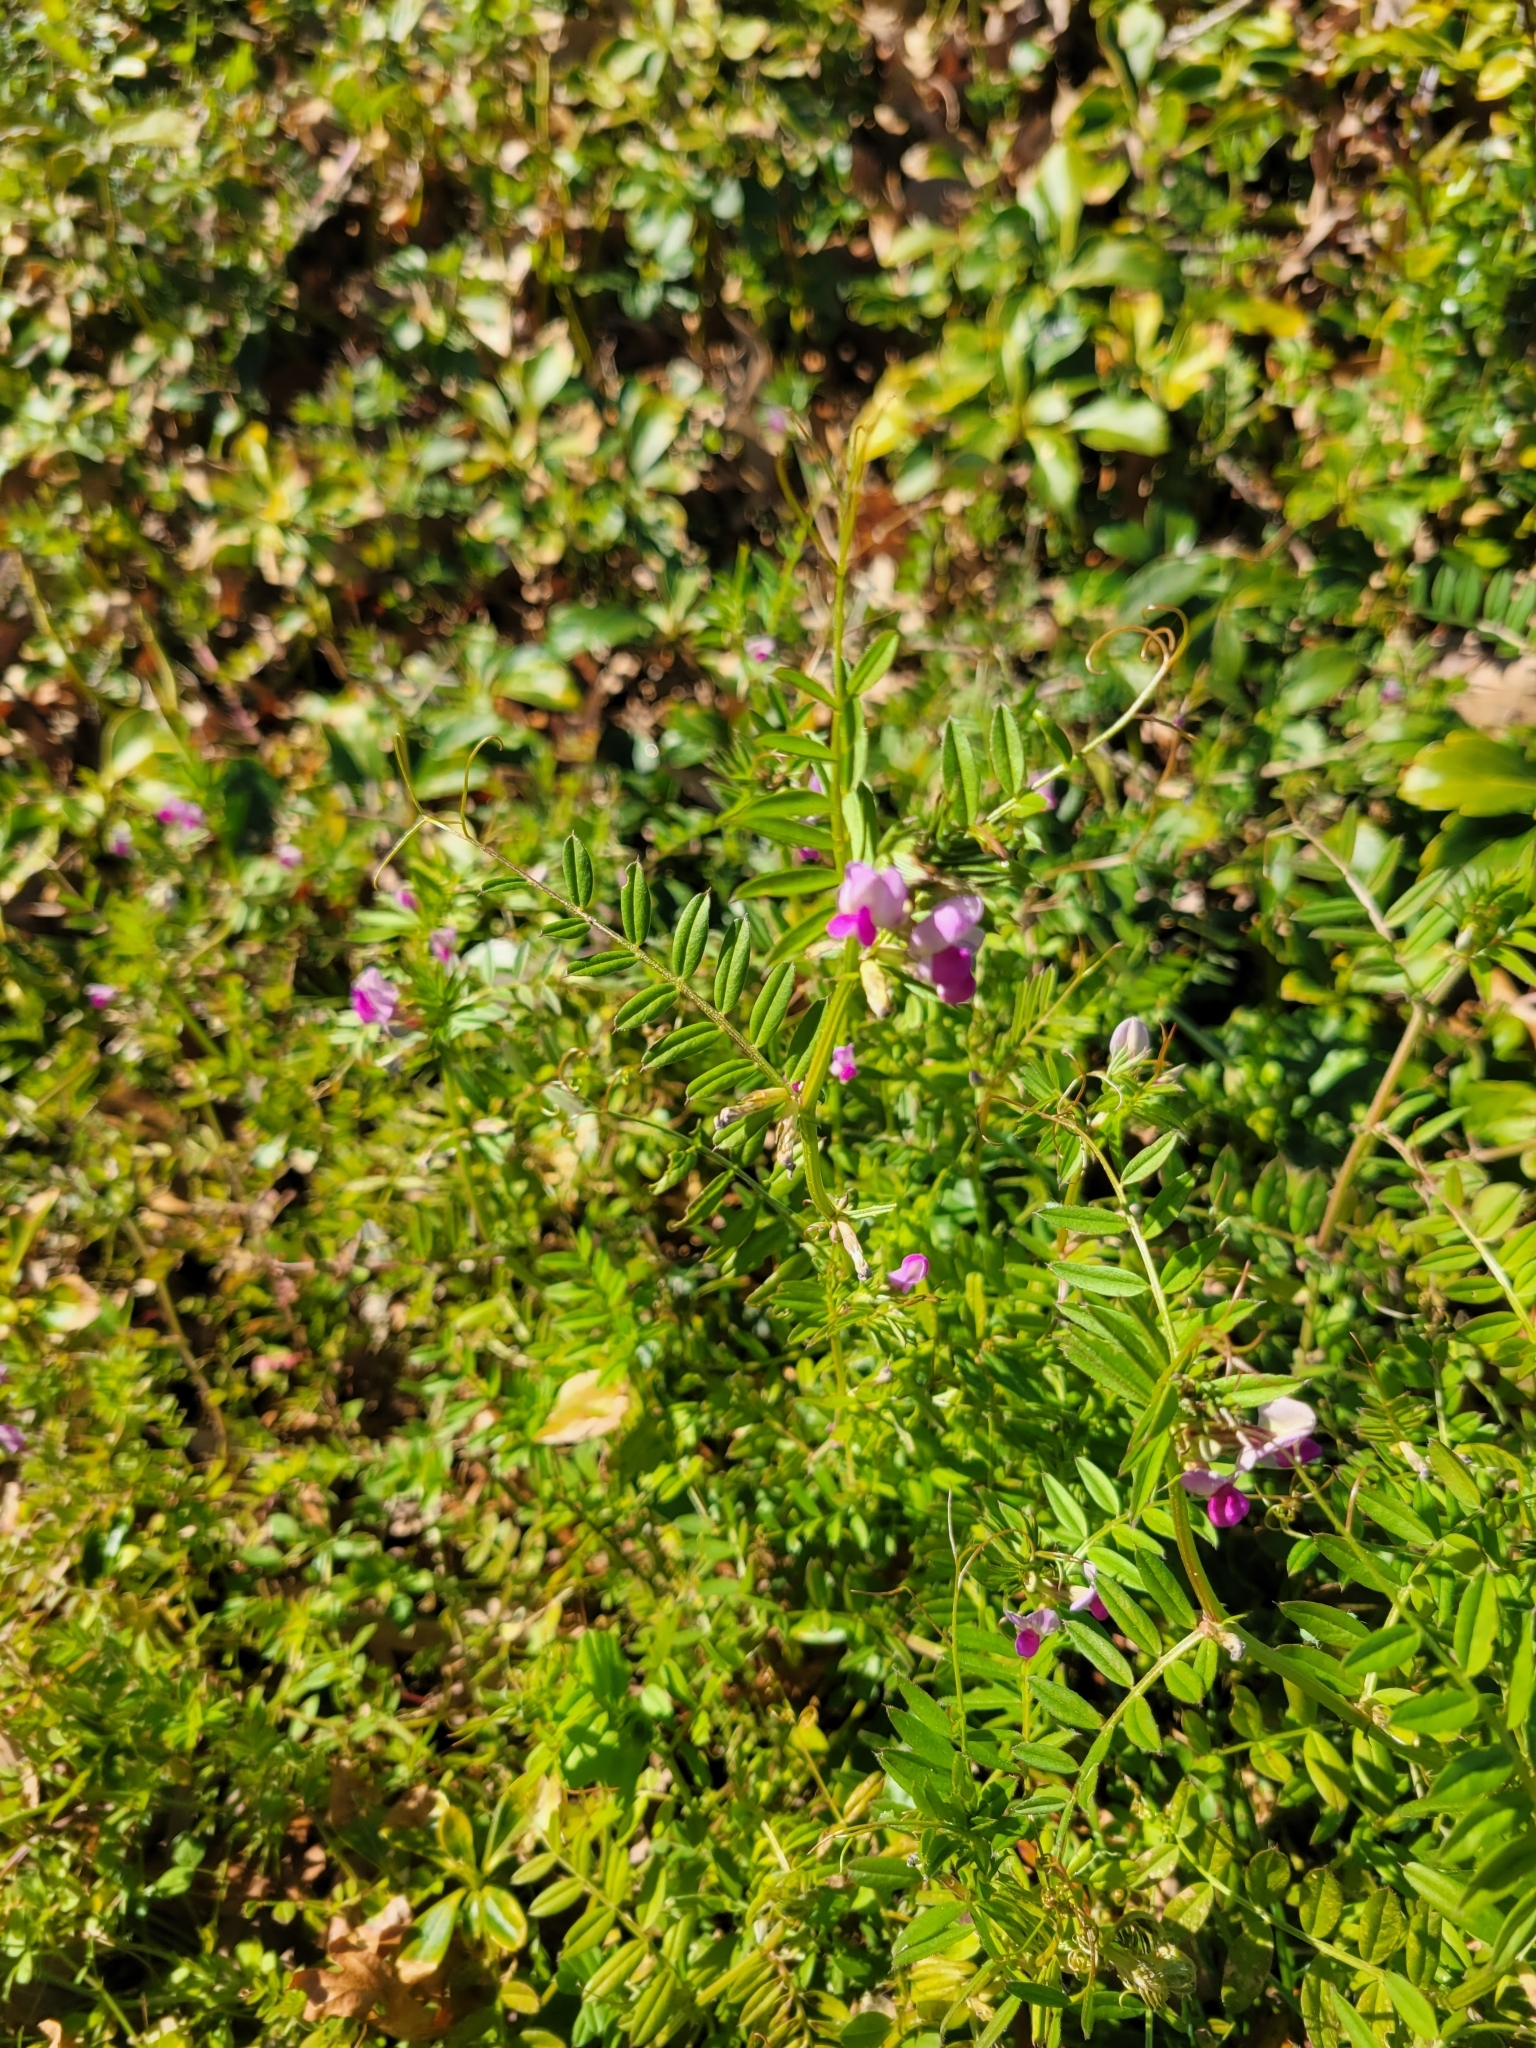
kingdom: Plantae
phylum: Tracheophyta
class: Magnoliopsida
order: Fabales
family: Fabaceae
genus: Vicia
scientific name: Vicia sativa
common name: Garden vetch
